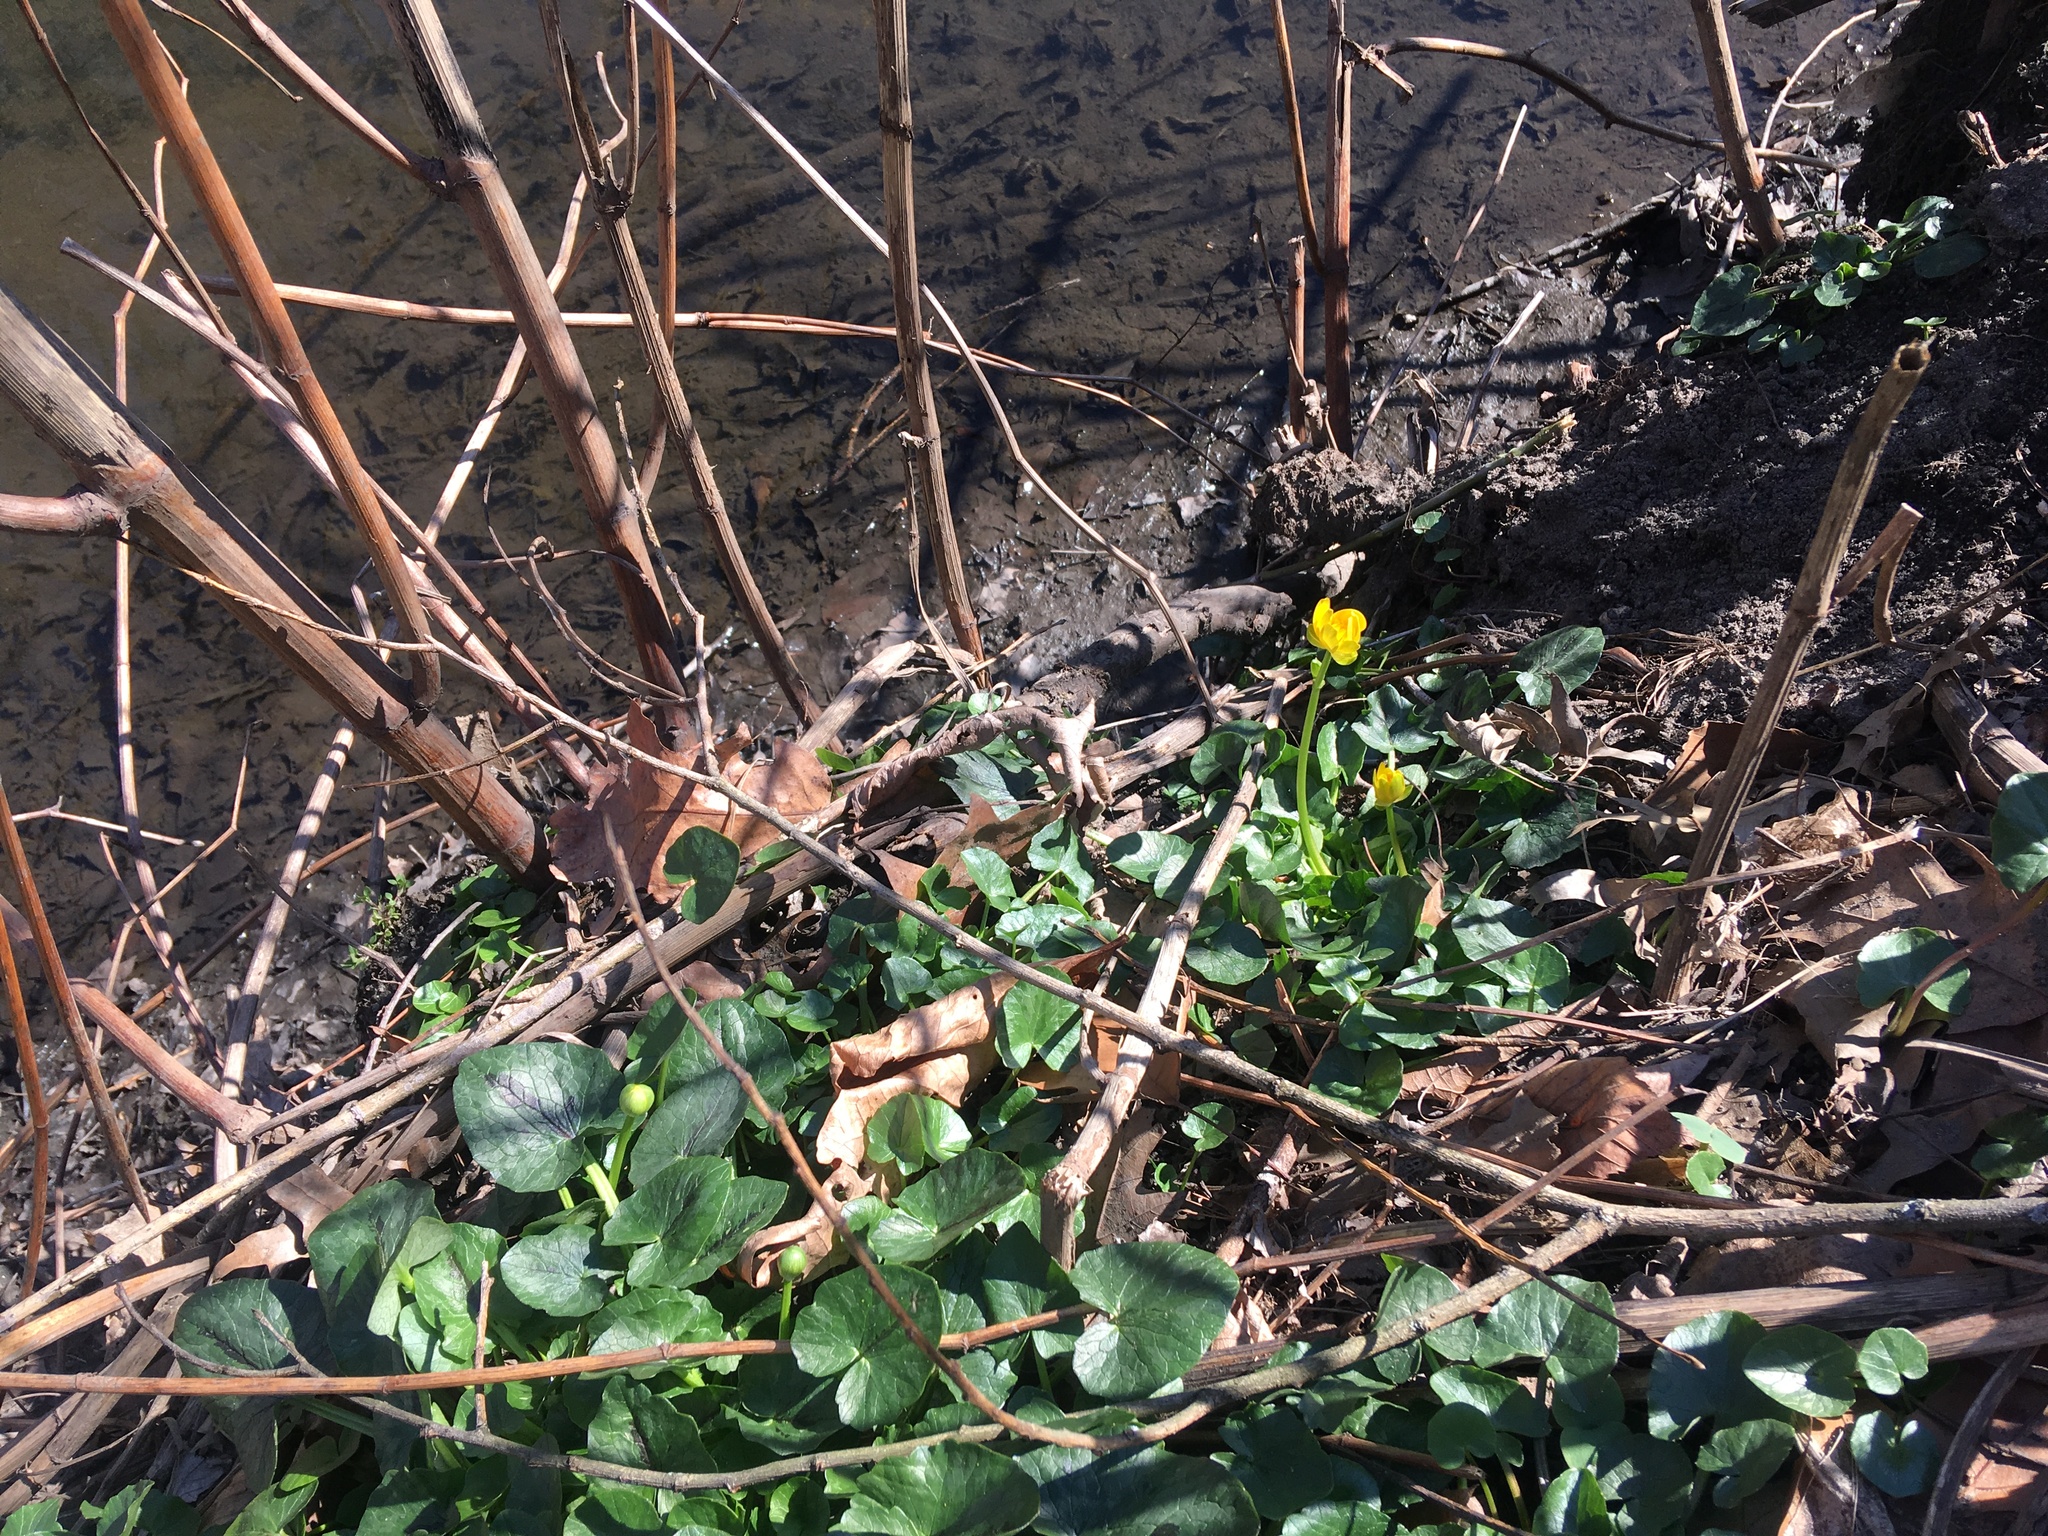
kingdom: Plantae
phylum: Tracheophyta
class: Magnoliopsida
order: Ranunculales
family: Ranunculaceae
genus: Ficaria
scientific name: Ficaria verna
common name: Lesser celandine
